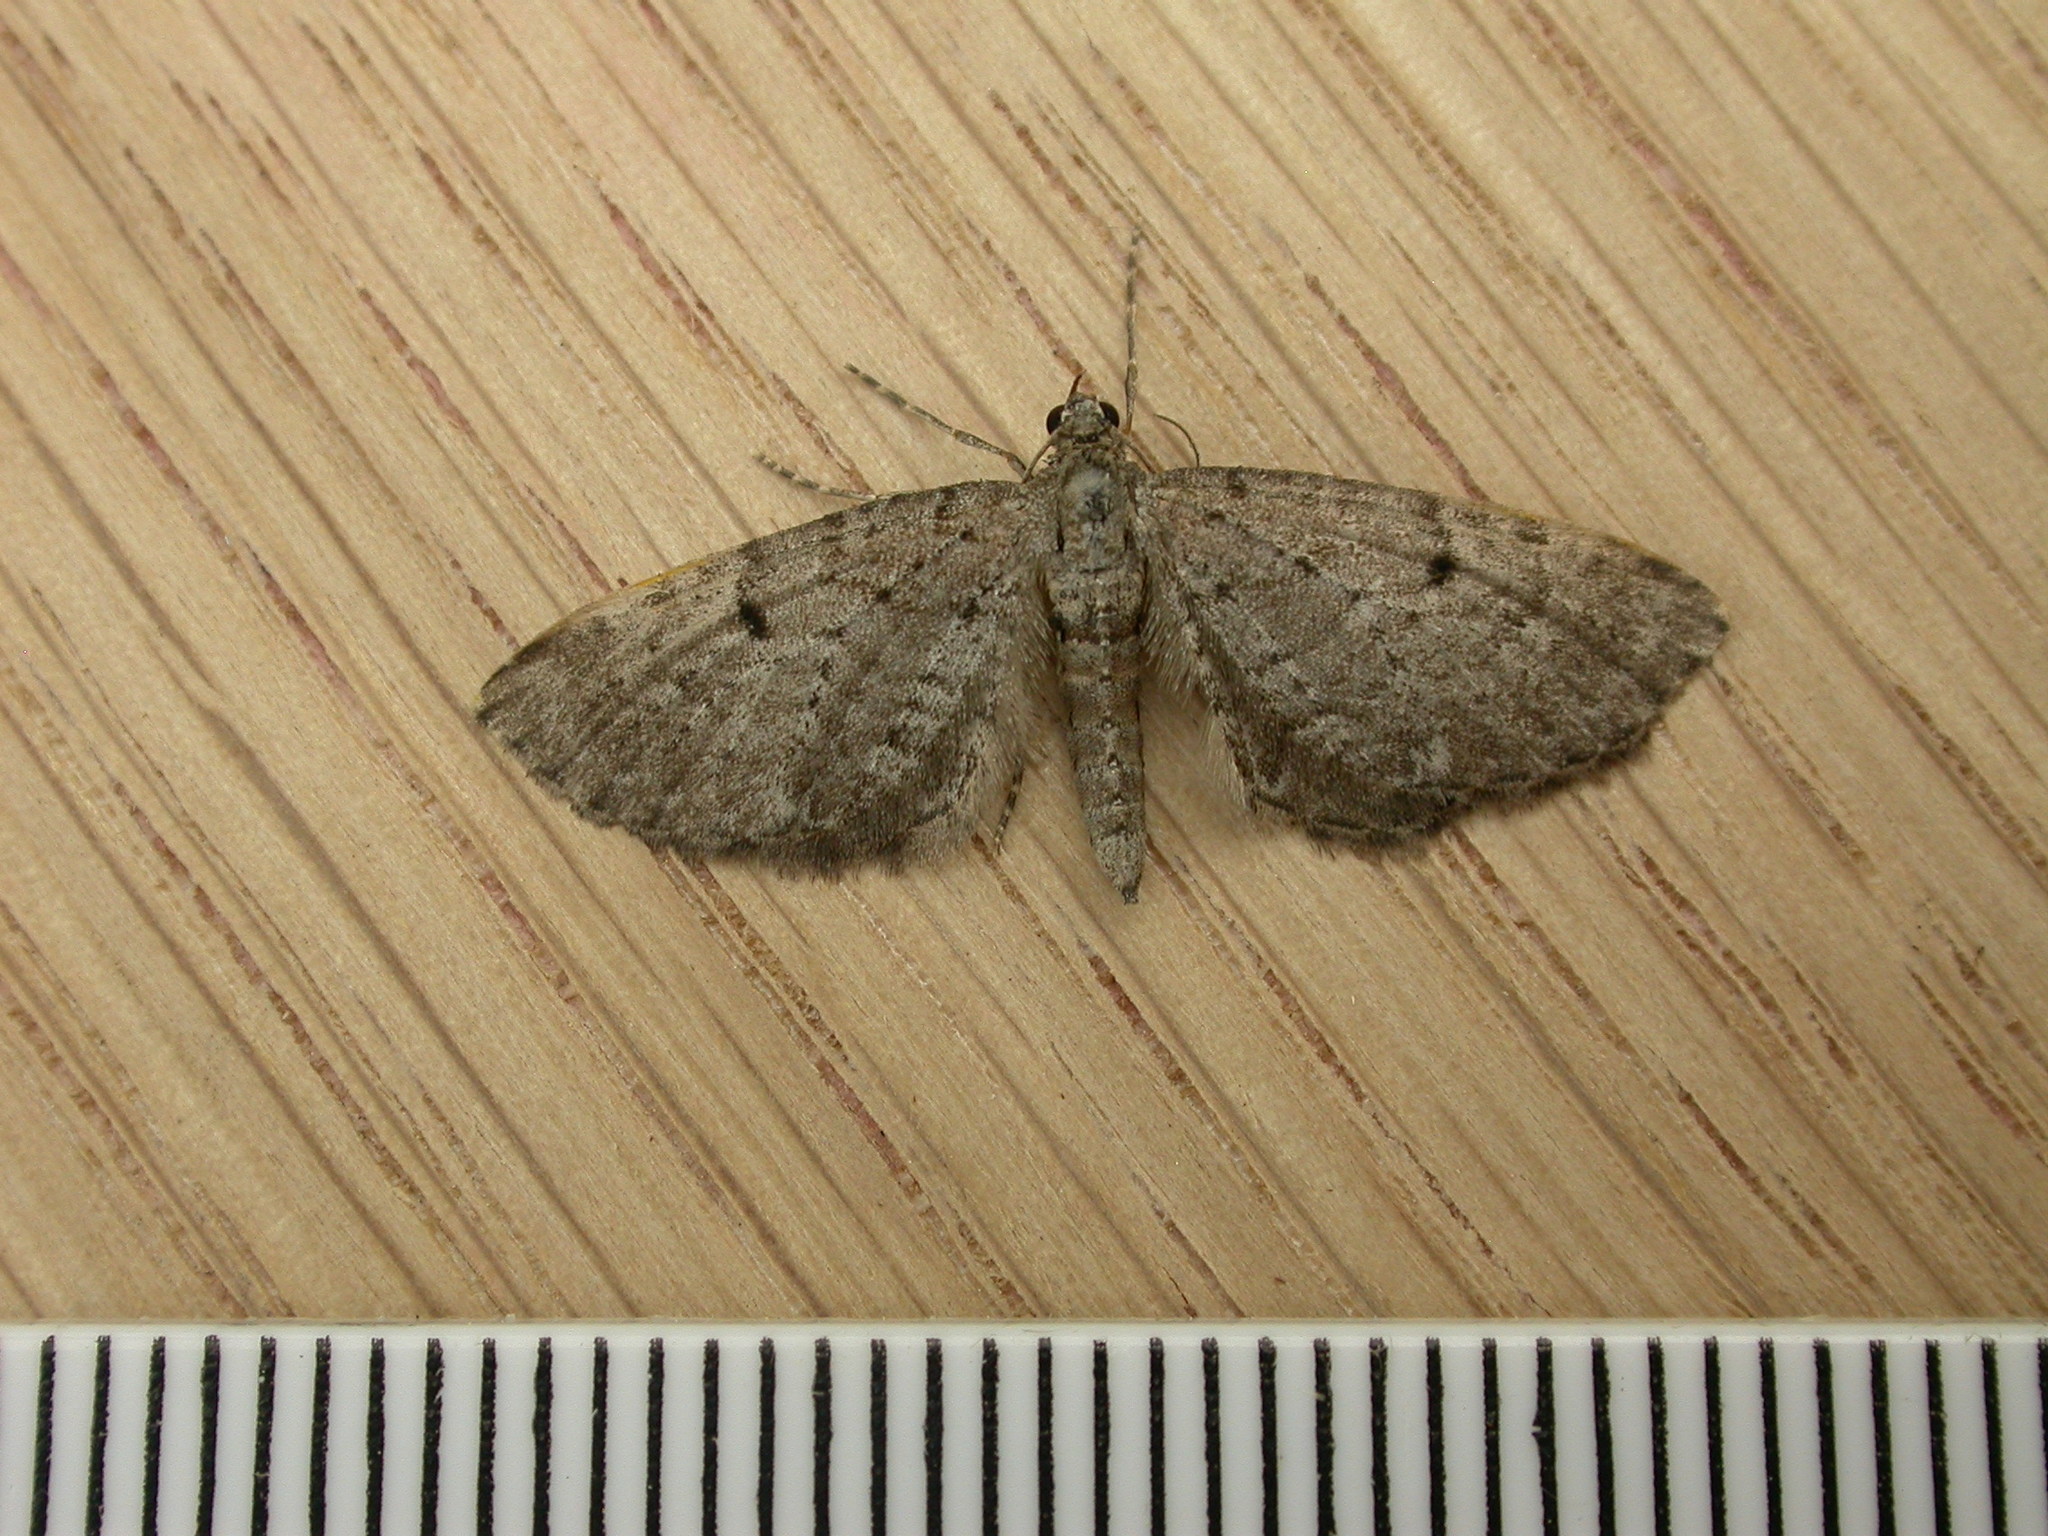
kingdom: Animalia
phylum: Arthropoda
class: Insecta
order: Lepidoptera
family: Geometridae
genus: Eupithecia
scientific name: Eupithecia intricata
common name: Freyers pug
